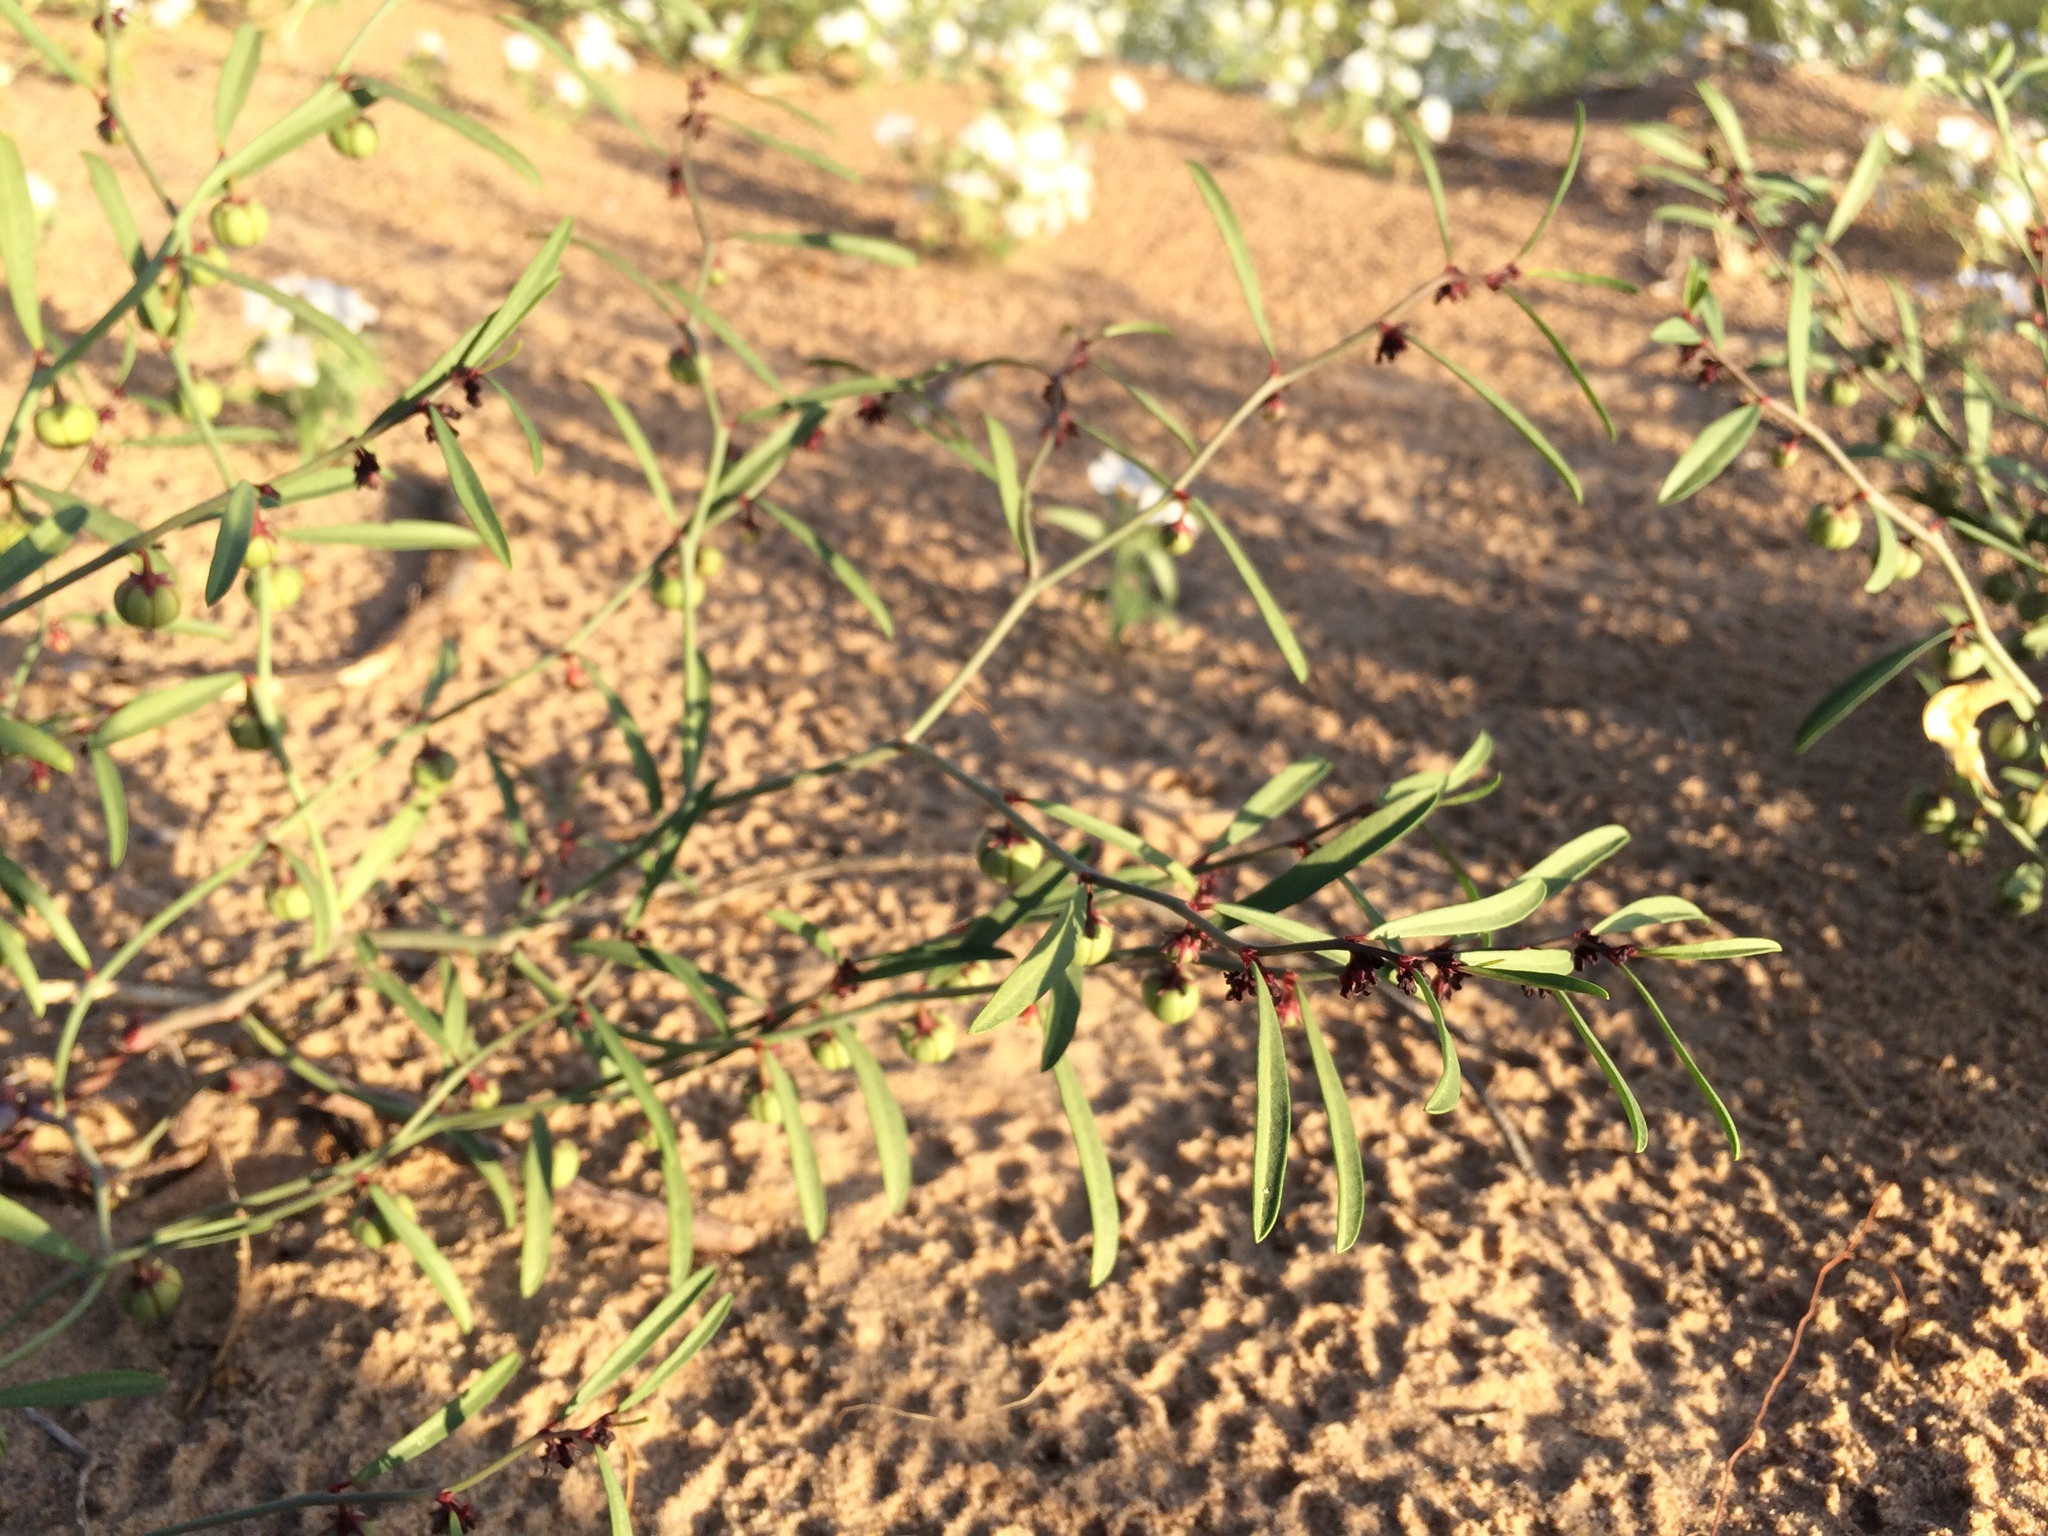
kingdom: Plantae
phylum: Tracheophyta
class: Magnoliopsida
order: Malpighiales
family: Phyllanthaceae
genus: Phyllanthus
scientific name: Phyllanthus warnockii
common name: Sand reverchonia
